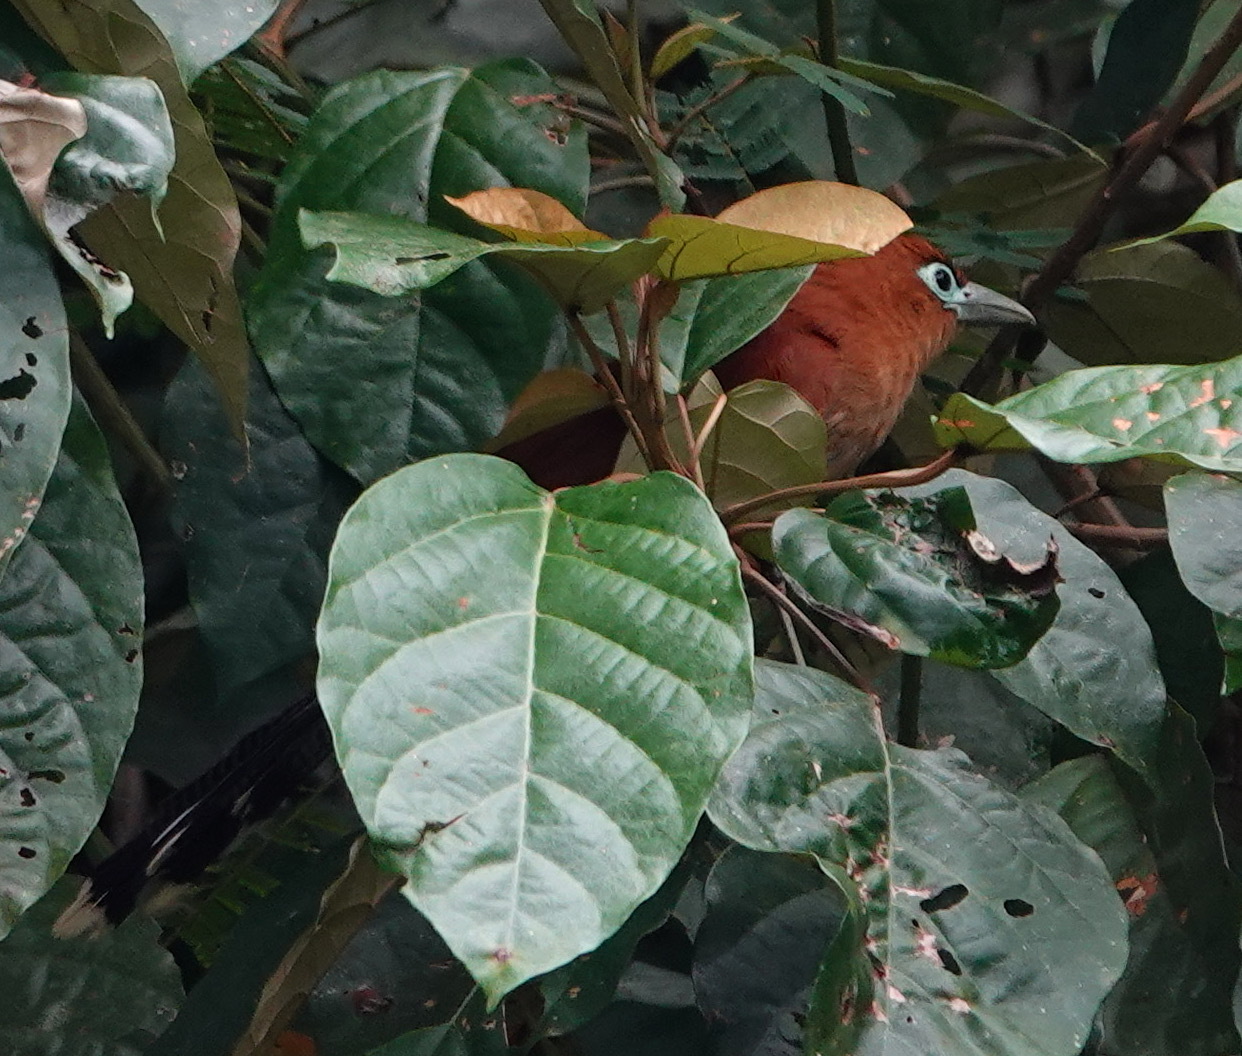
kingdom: Animalia
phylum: Chordata
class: Aves
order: Cuculiformes
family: Cuculidae
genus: Rhinortha
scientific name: Rhinortha chlorophaea
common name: Raffles's malkoha
